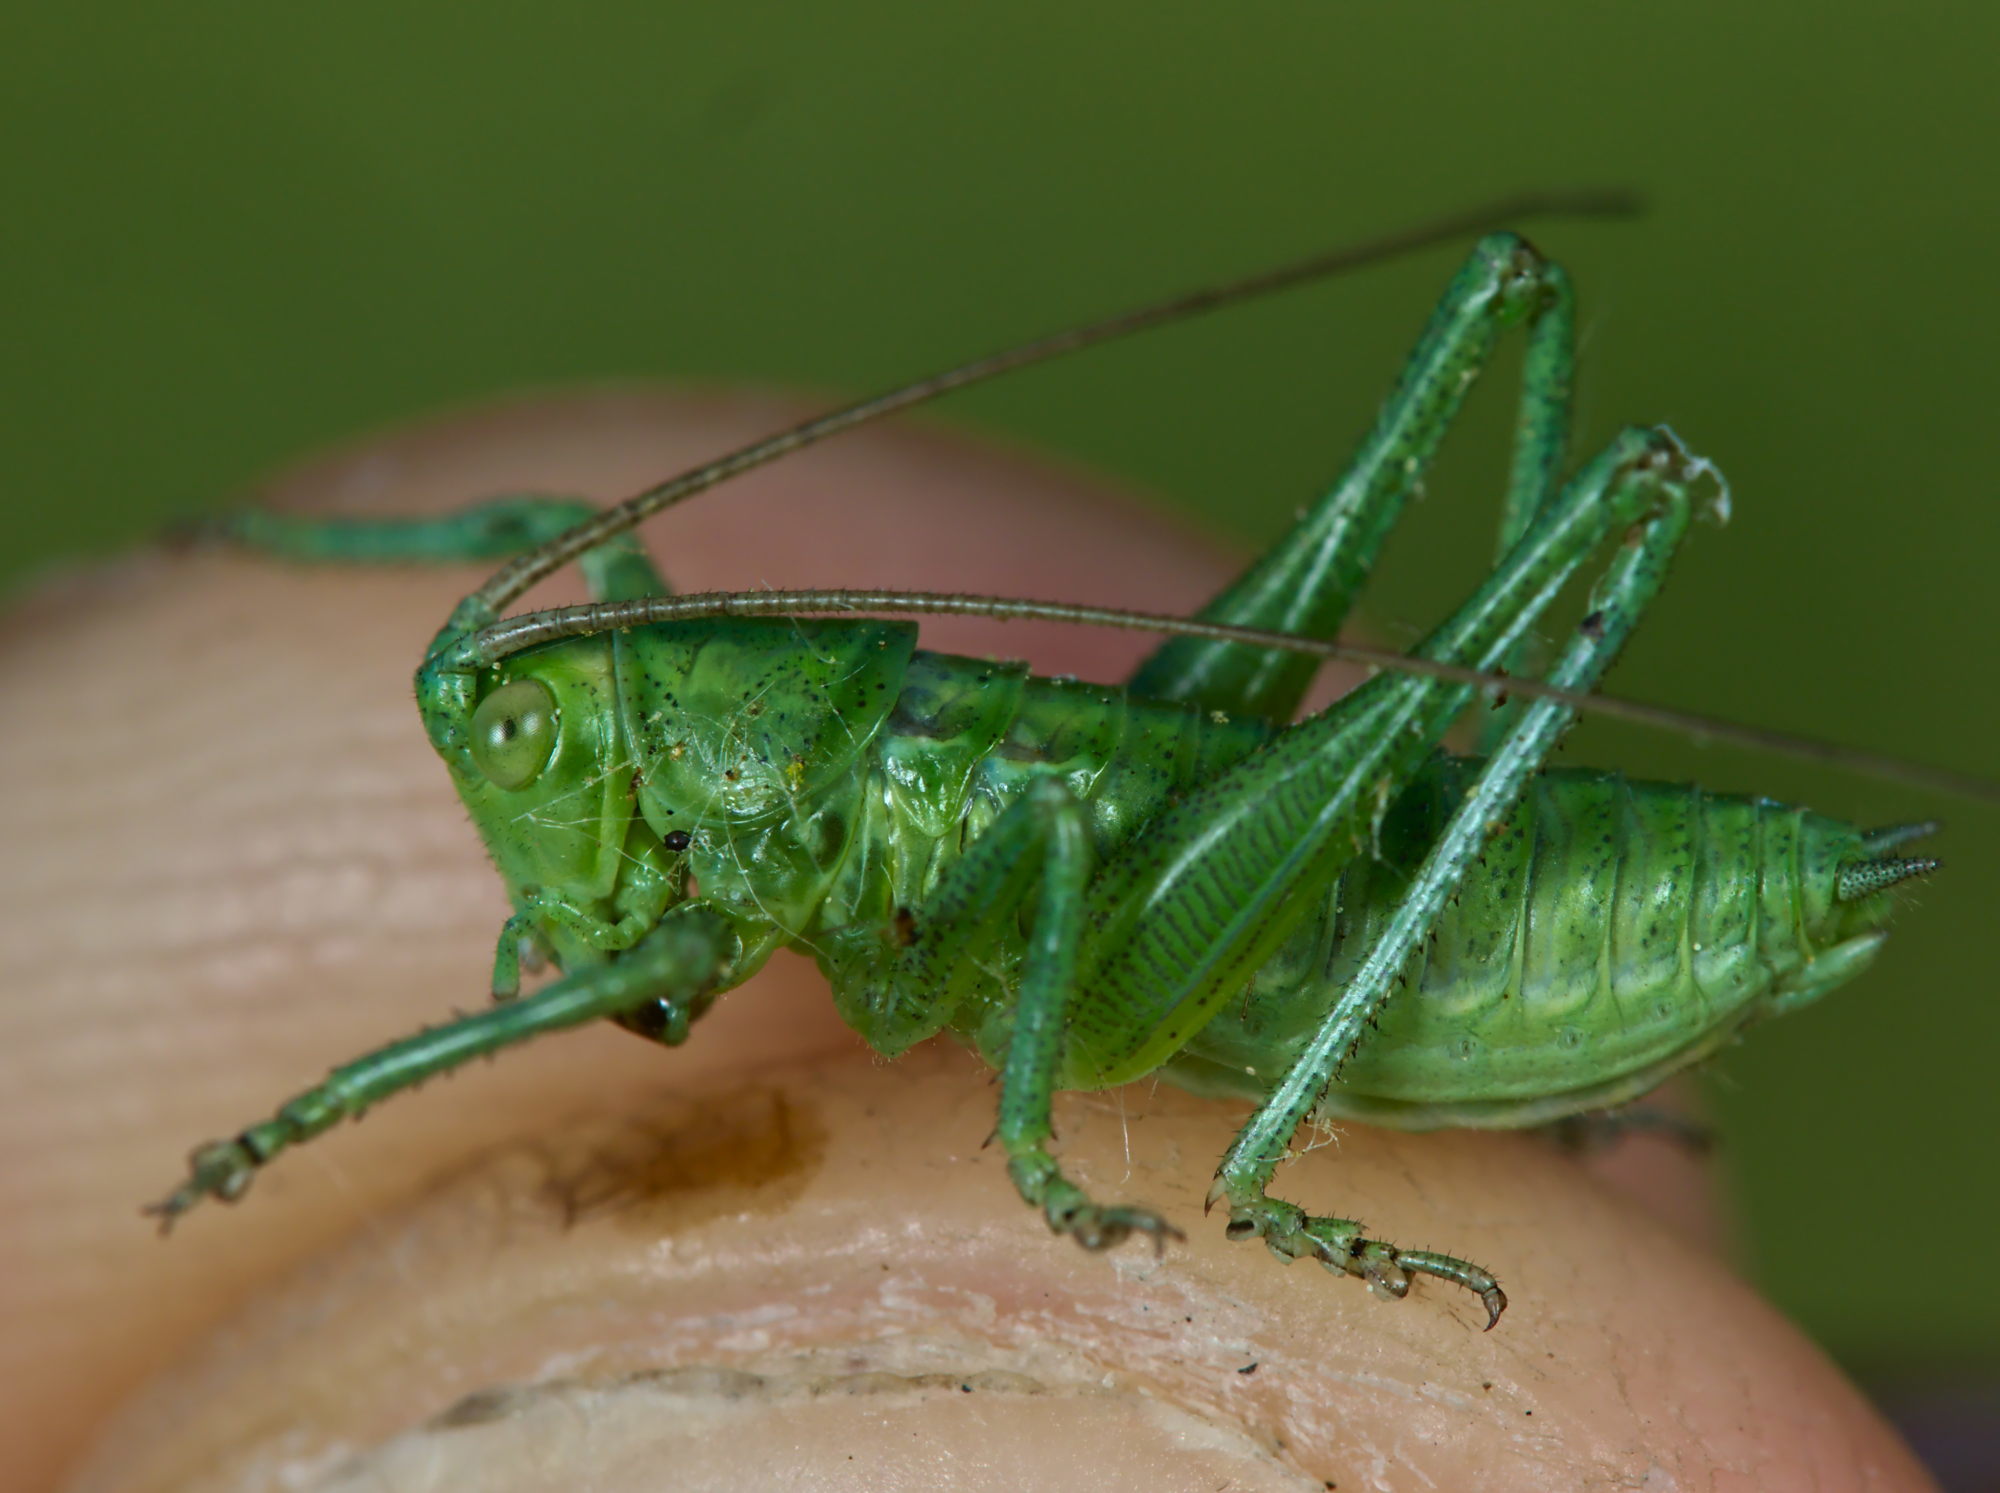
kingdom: Animalia
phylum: Arthropoda
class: Insecta
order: Orthoptera
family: Tettigoniidae
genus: Tettigonia
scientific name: Tettigonia viridissima
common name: Great green bush-cricket
